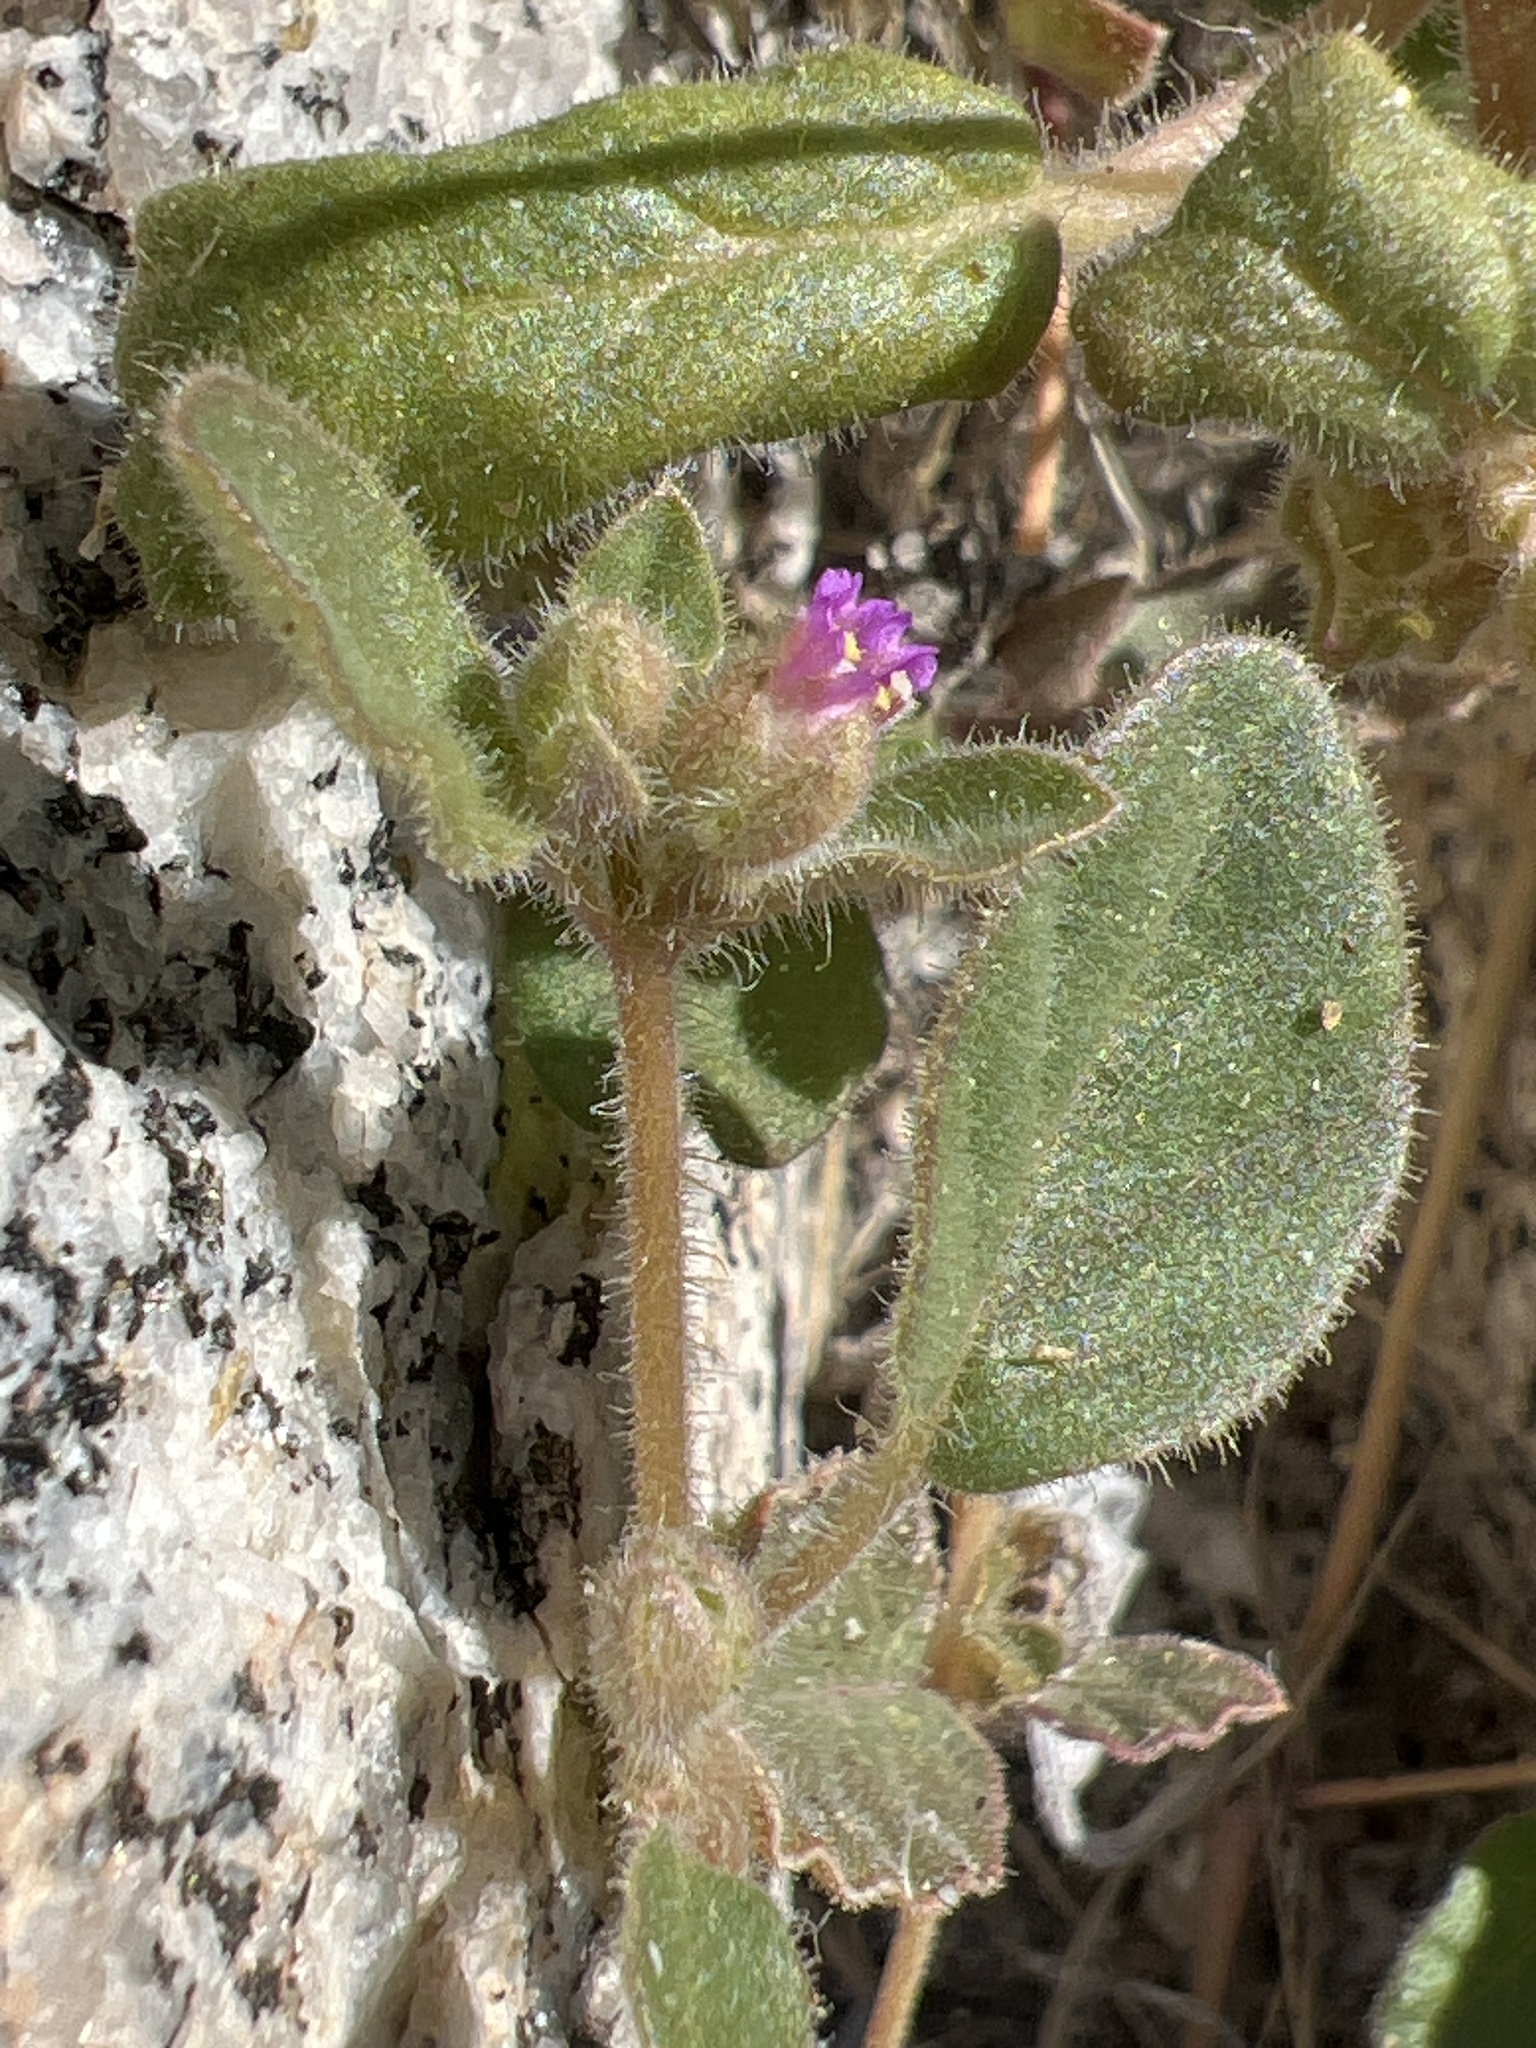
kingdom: Plantae
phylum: Tracheophyta
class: Magnoliopsida
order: Caryophyllales
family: Nyctaginaceae
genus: Allionia
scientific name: Allionia incarnata
